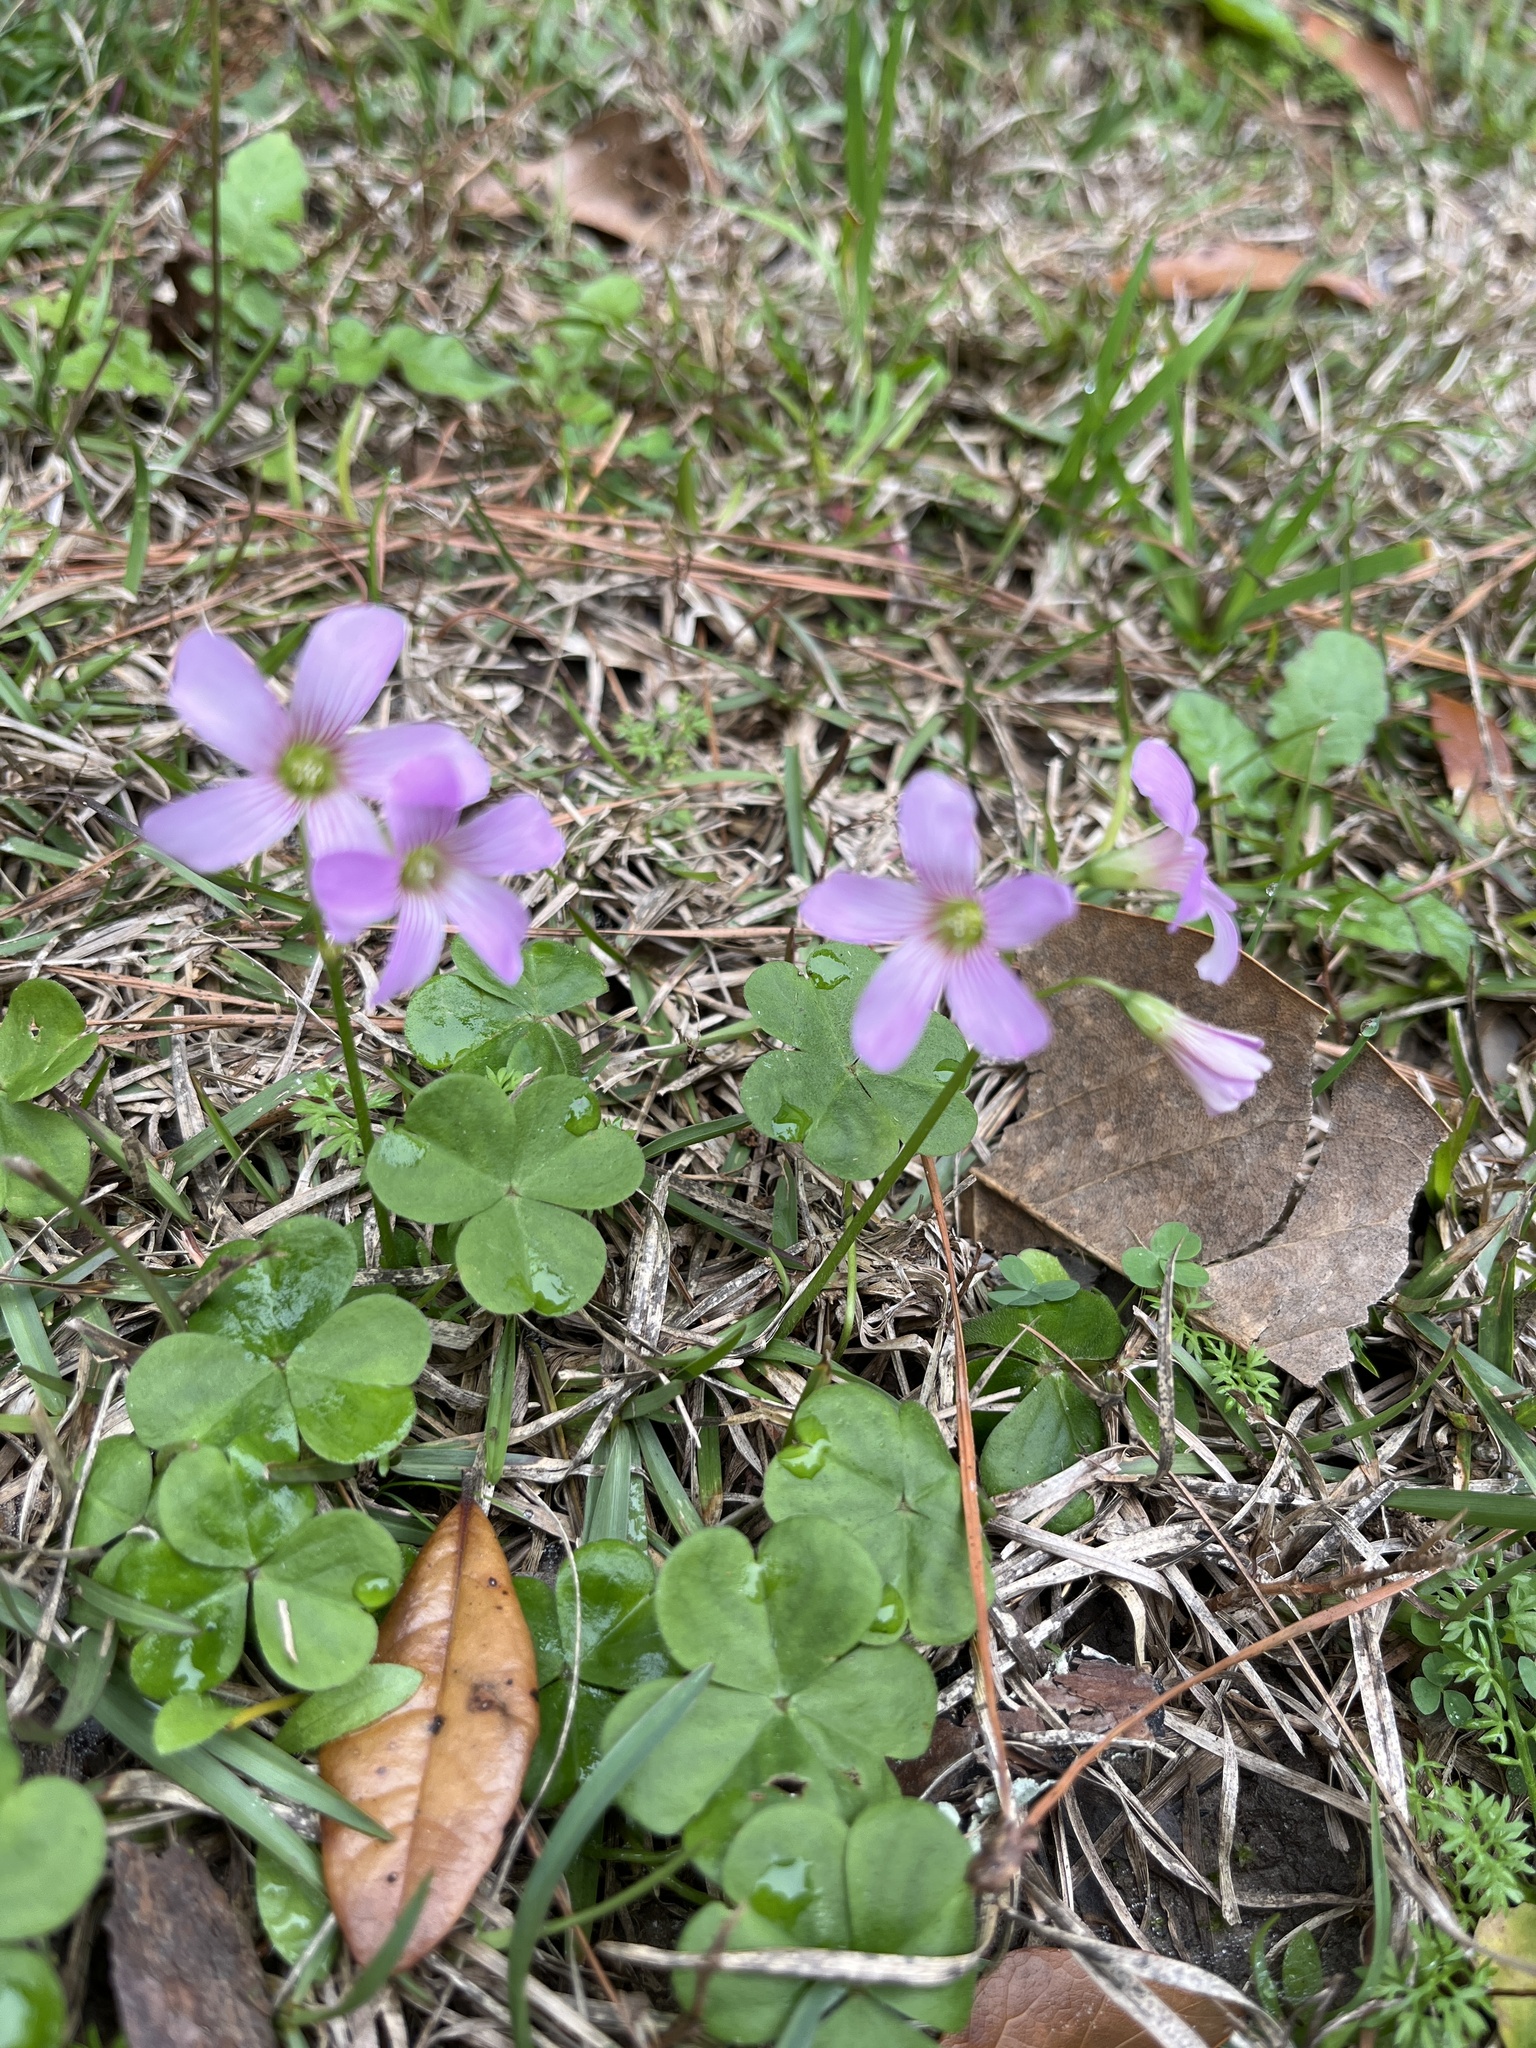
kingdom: Plantae
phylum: Tracheophyta
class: Magnoliopsida
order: Oxalidales
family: Oxalidaceae
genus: Oxalis
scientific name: Oxalis debilis
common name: Large-flowered pink-sorrel
